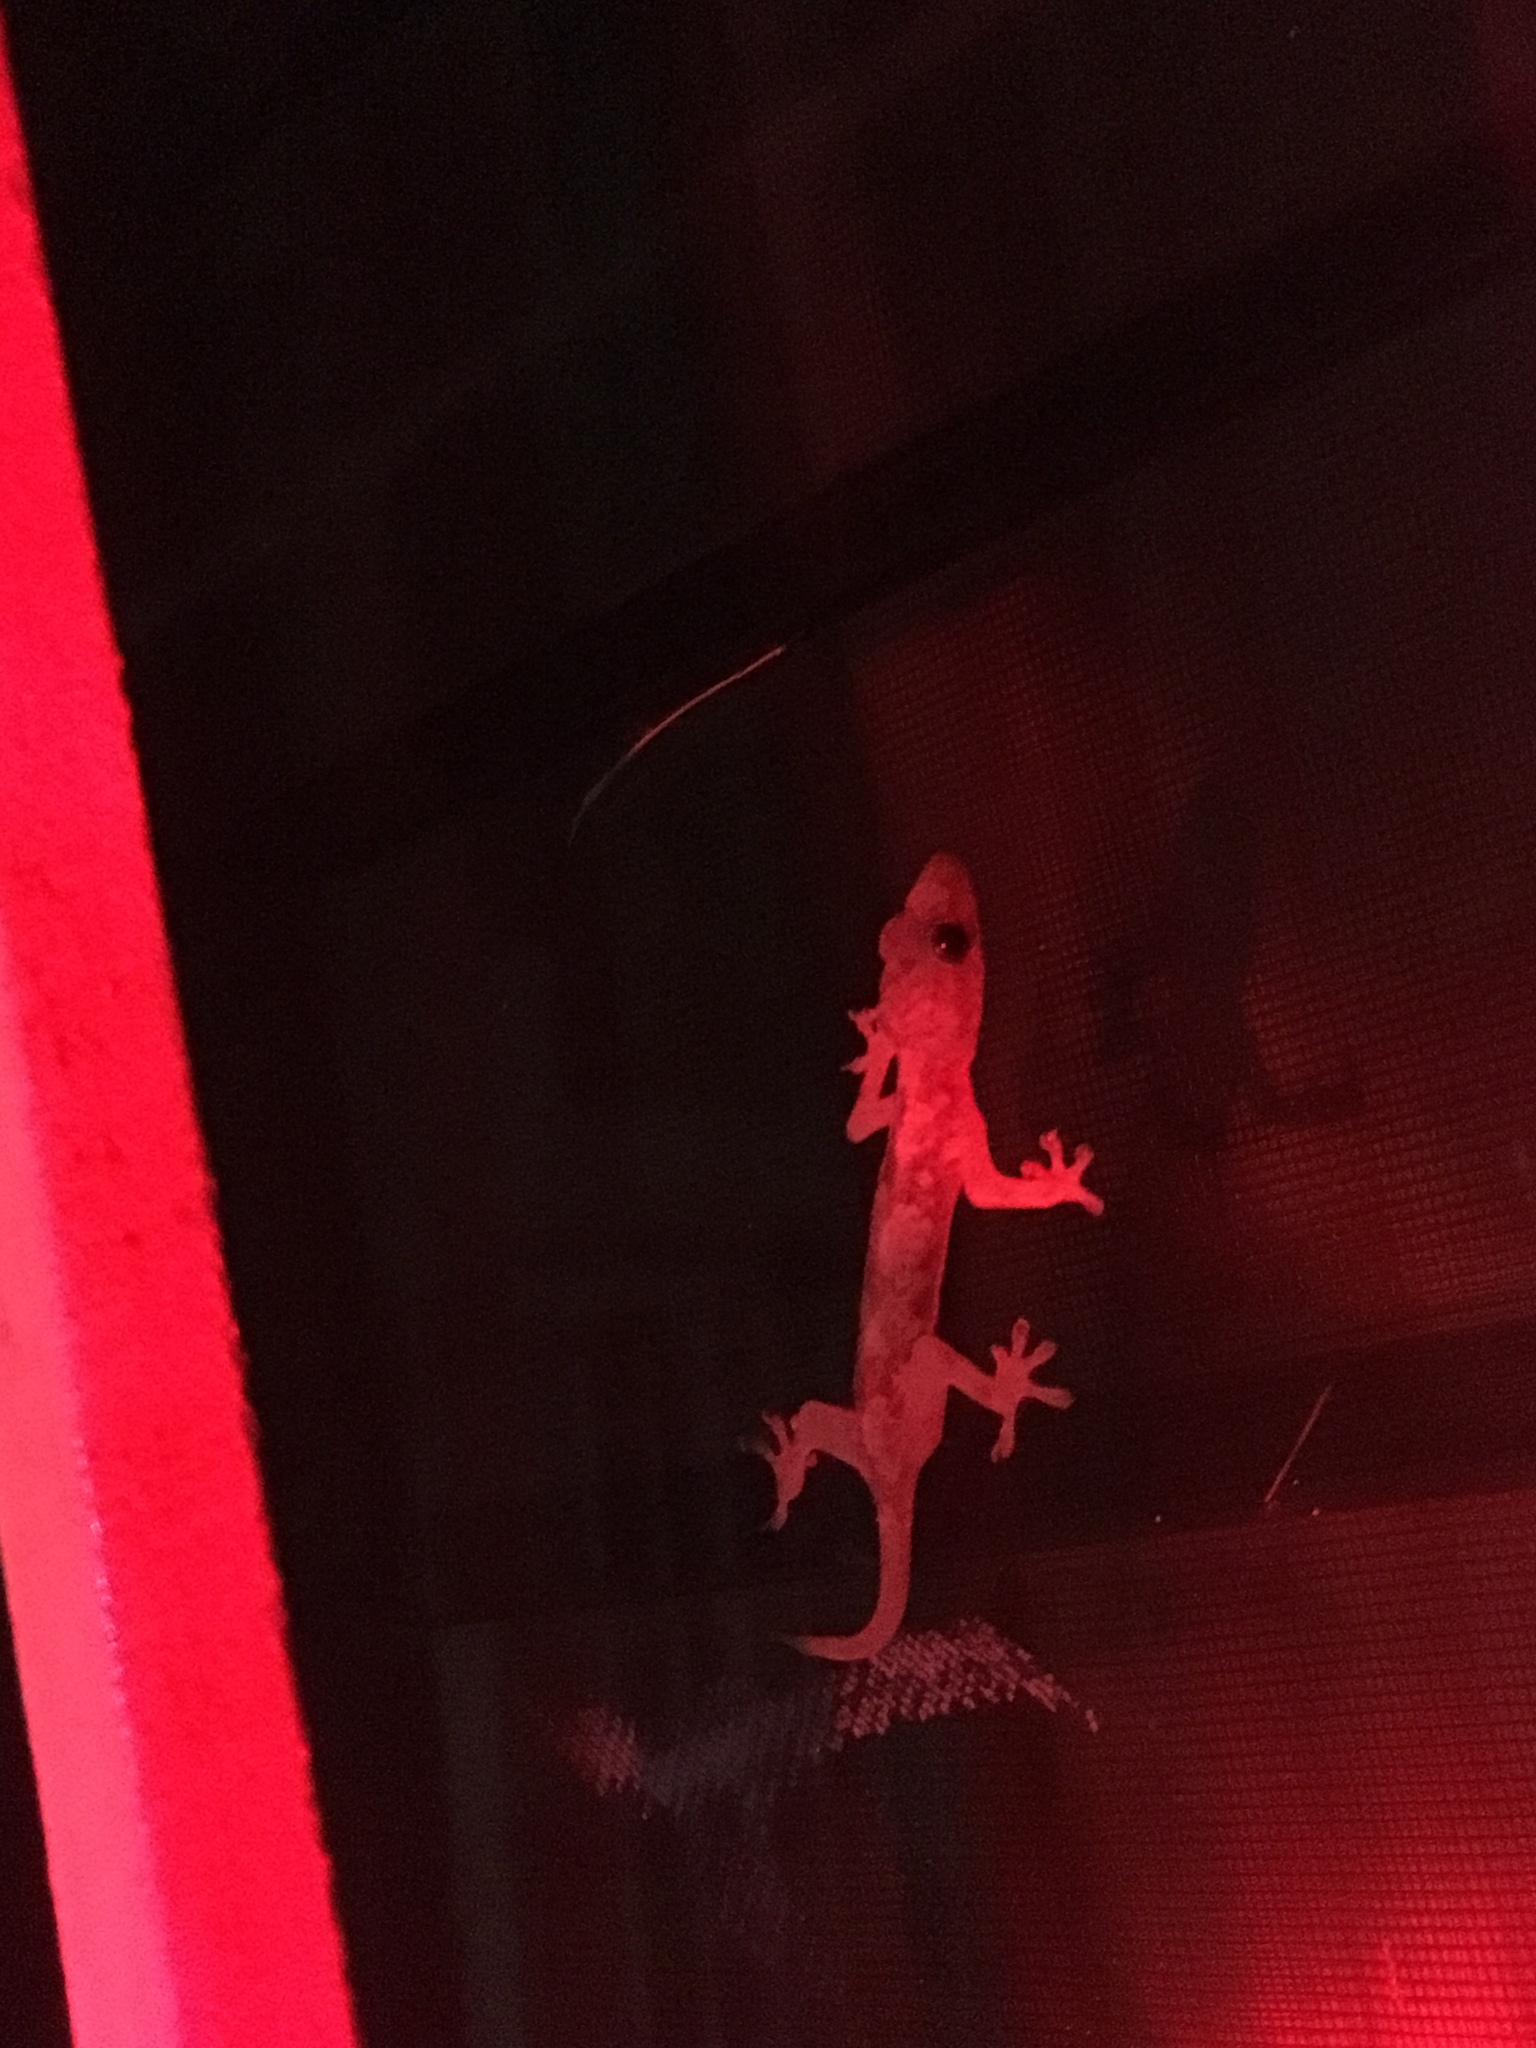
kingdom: Animalia
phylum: Chordata
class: Squamata
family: Gekkonidae
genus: Hemidactylus
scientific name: Hemidactylus mabouia
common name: House gecko
